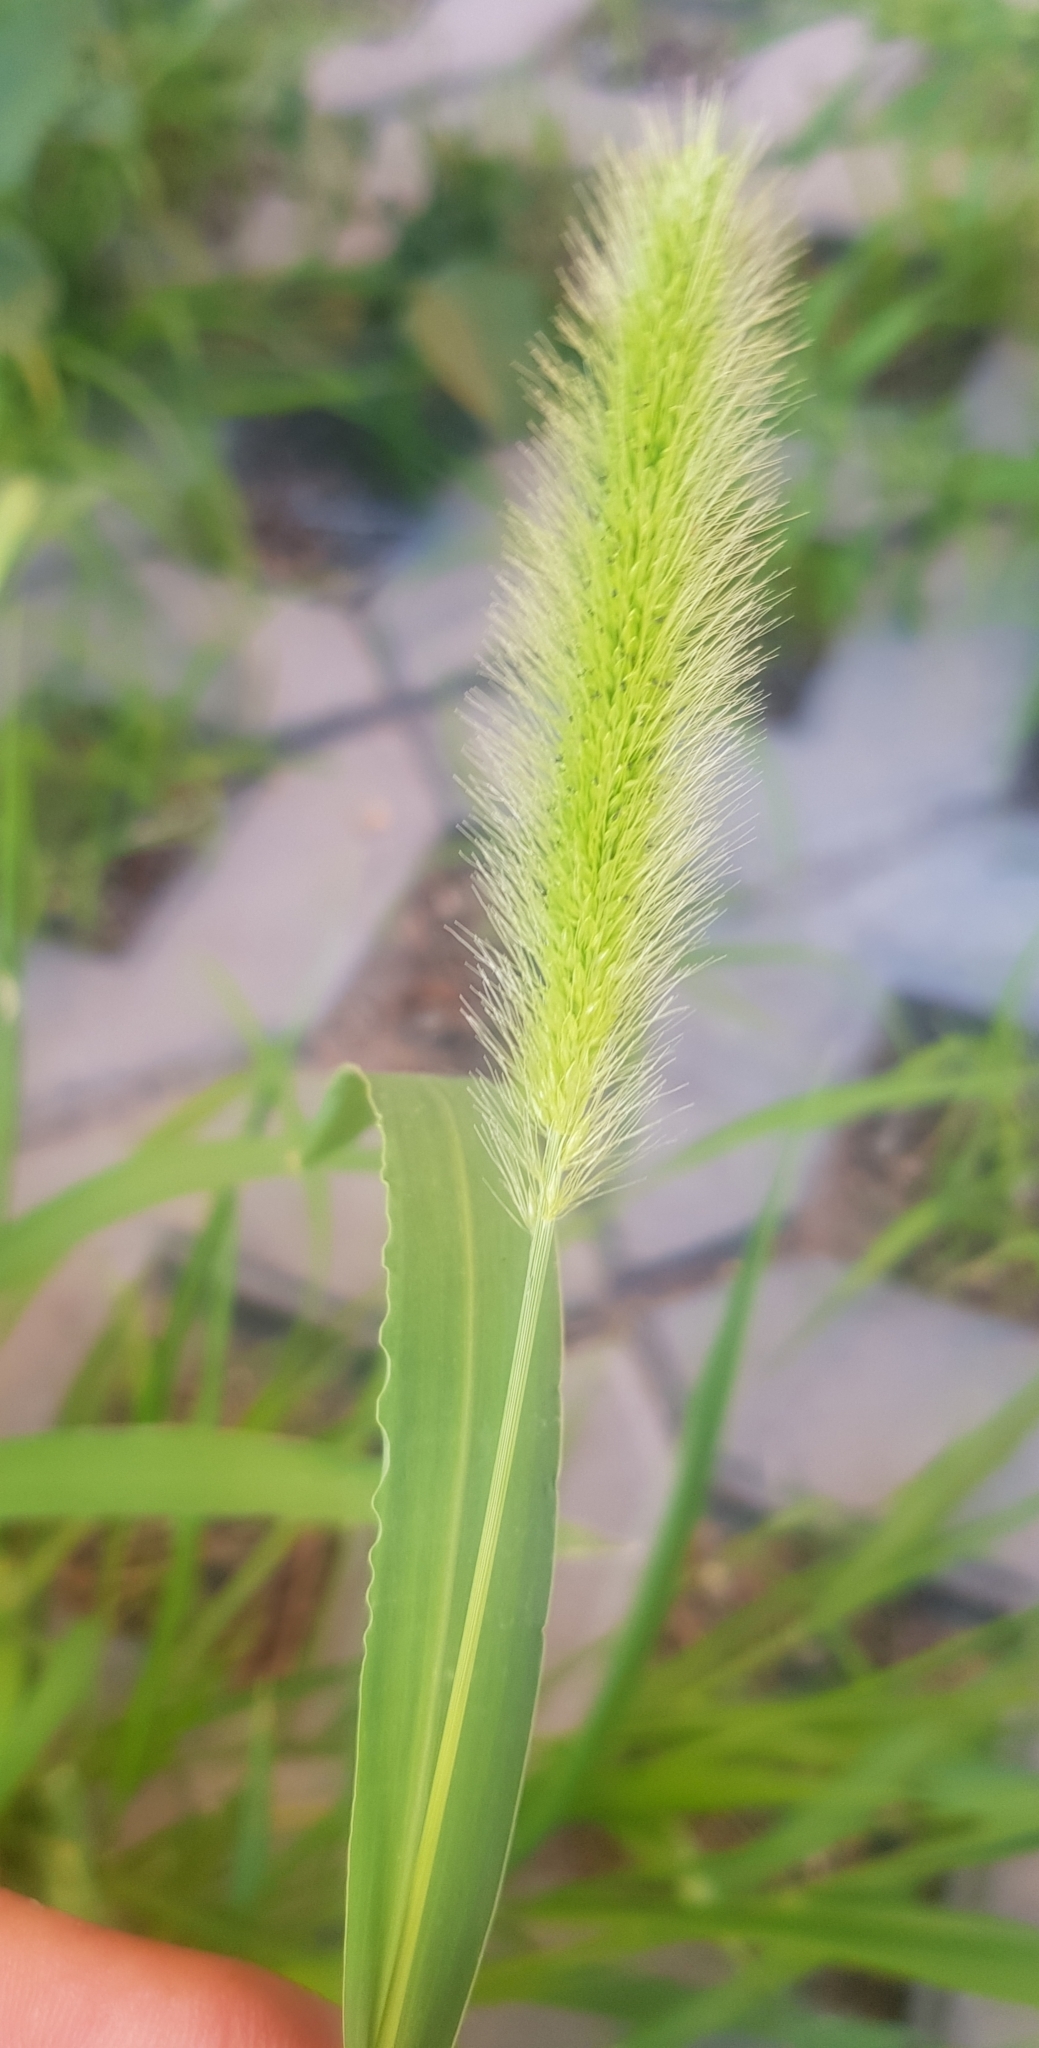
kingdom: Plantae
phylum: Tracheophyta
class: Liliopsida
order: Poales
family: Poaceae
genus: Setaria
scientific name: Setaria viridis
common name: Green bristlegrass
